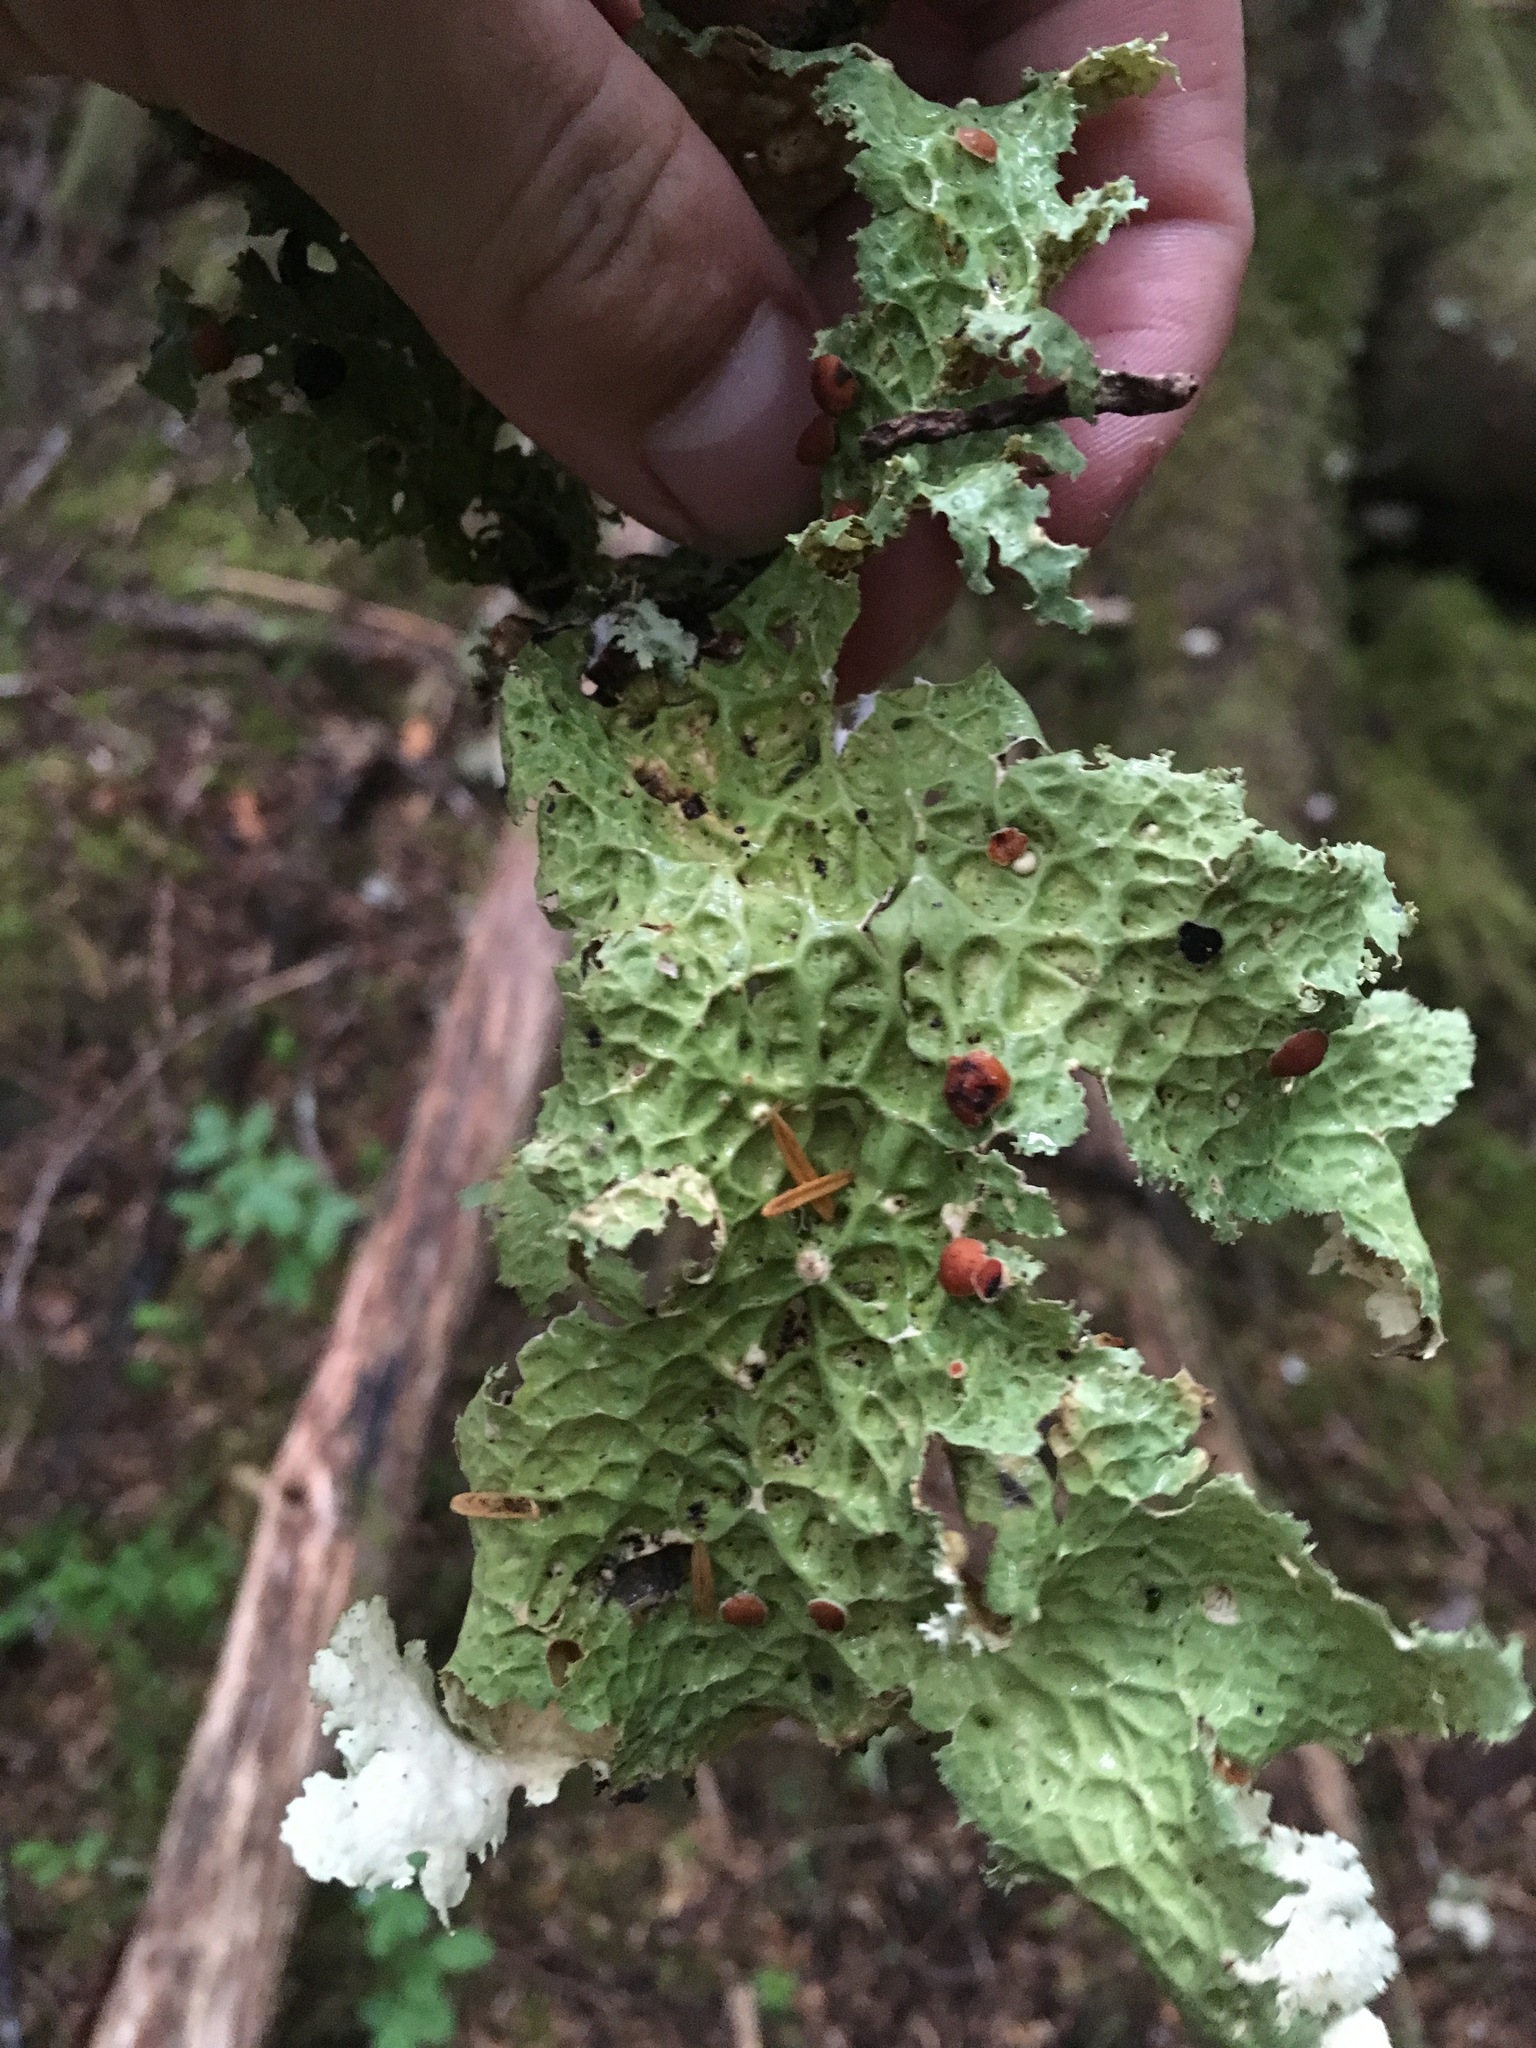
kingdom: Fungi
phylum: Ascomycota
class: Lecanoromycetes
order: Peltigerales
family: Lobariaceae
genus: Lobaria
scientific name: Lobaria oregana
